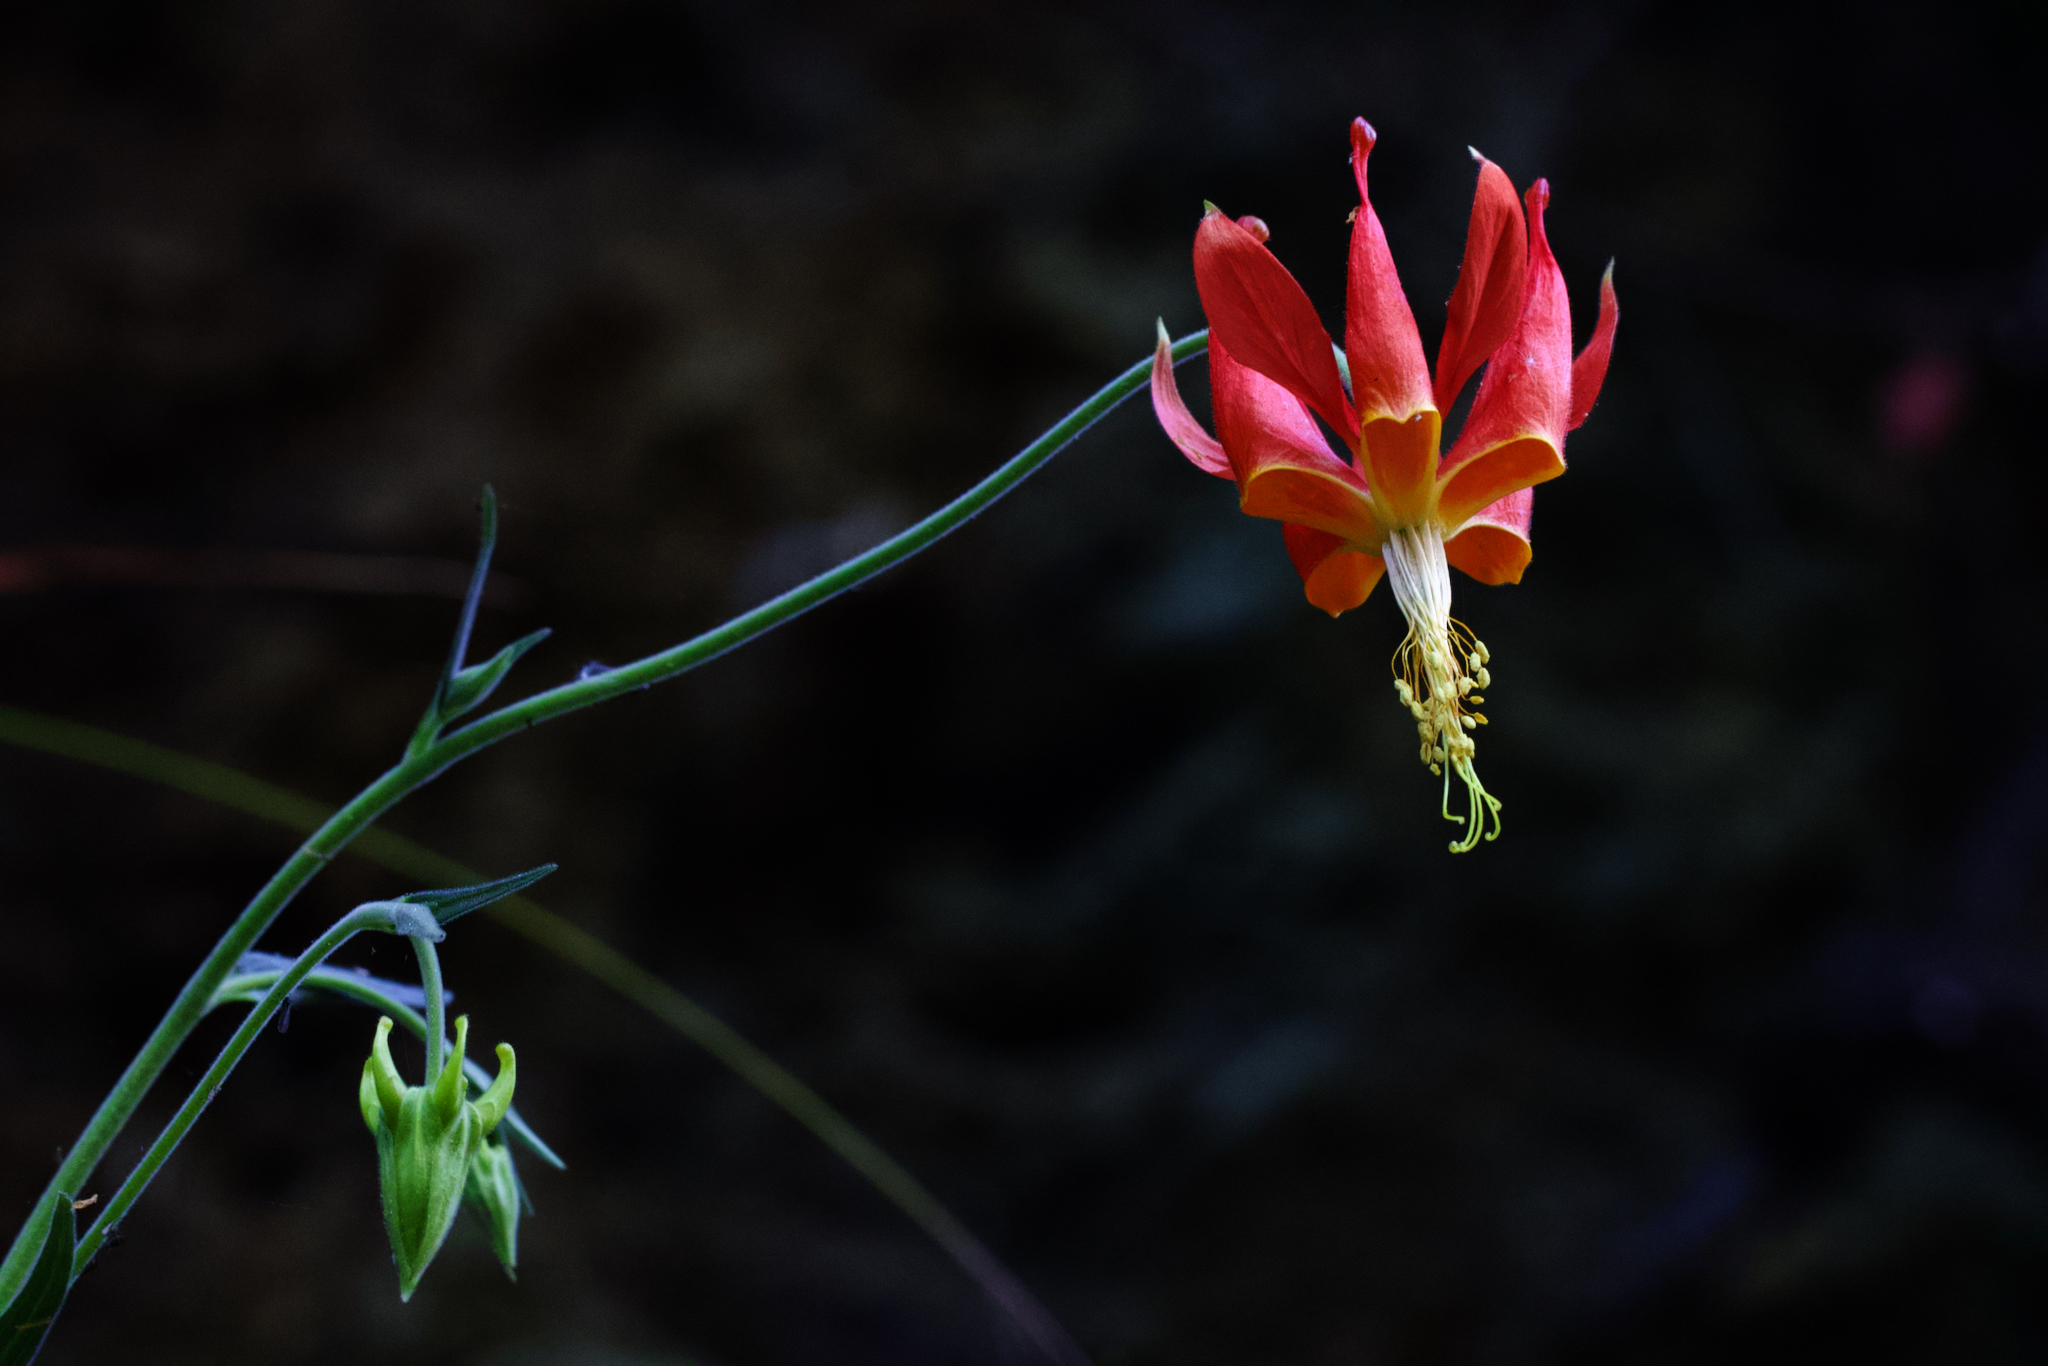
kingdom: Plantae
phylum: Tracheophyta
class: Magnoliopsida
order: Ranunculales
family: Ranunculaceae
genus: Aquilegia
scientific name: Aquilegia eximia
